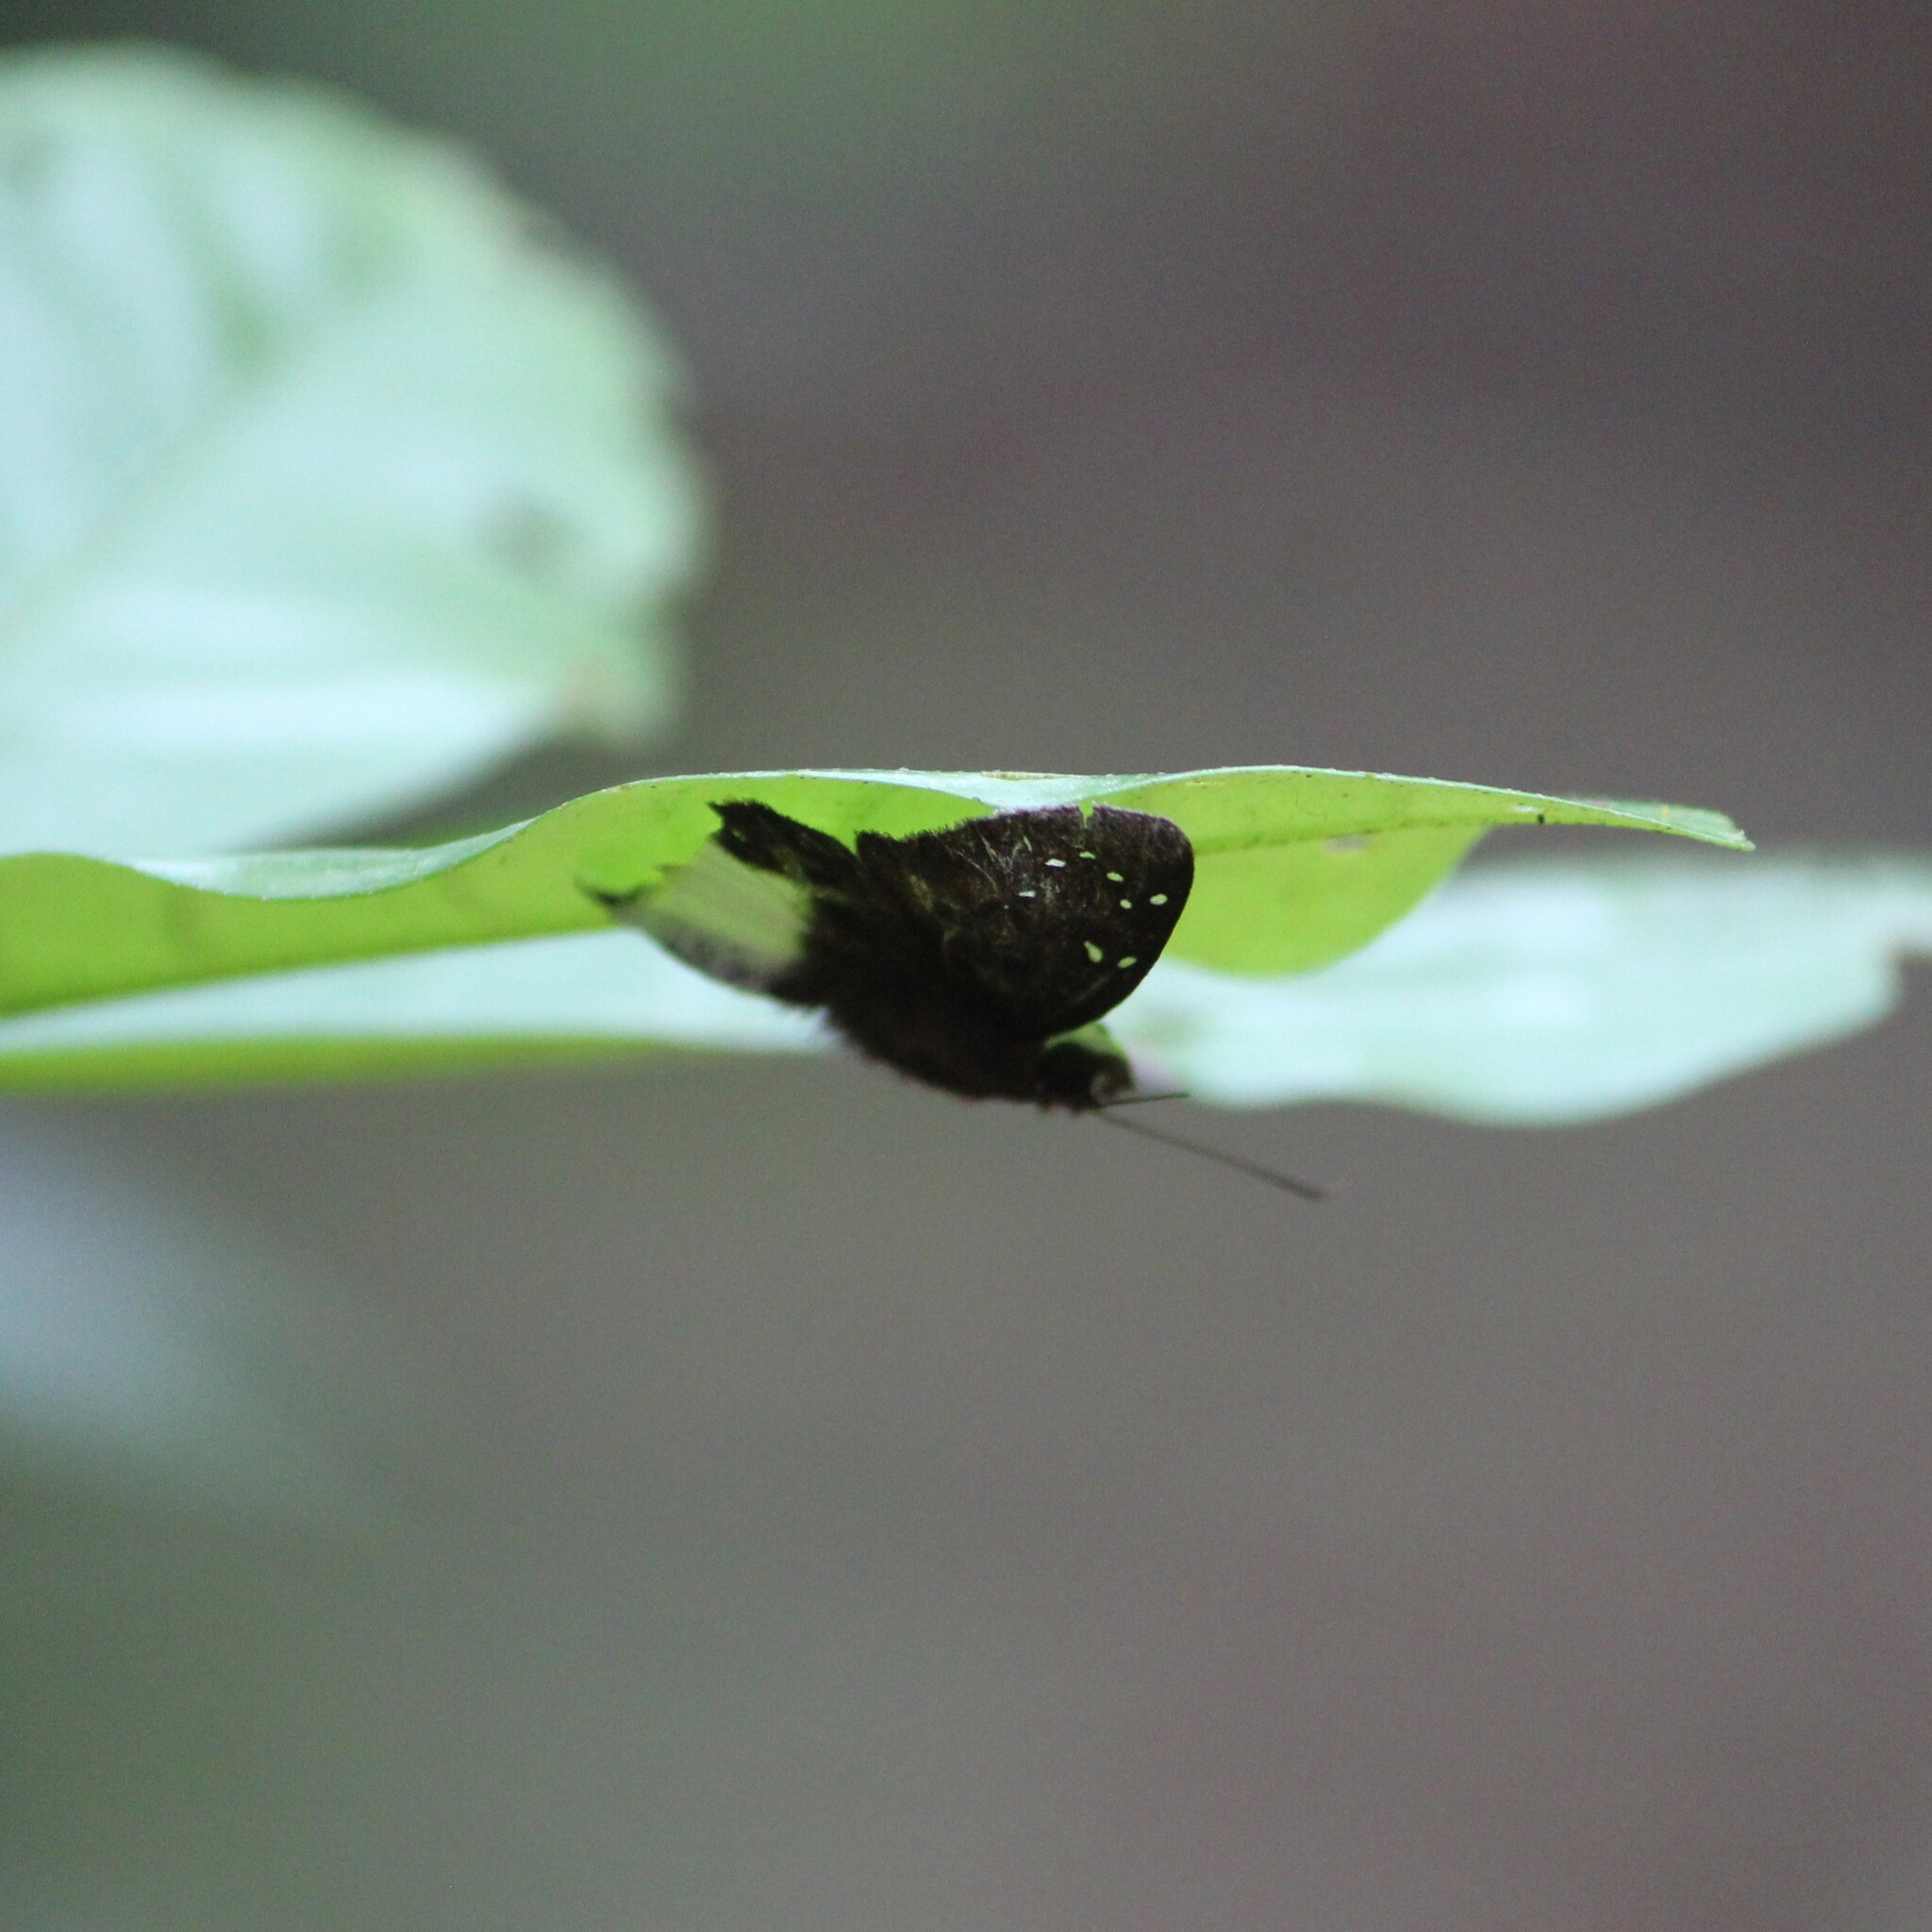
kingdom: Animalia
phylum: Arthropoda
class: Insecta
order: Lepidoptera
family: Hesperiidae
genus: Tagiades
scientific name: Tagiades litigiosa
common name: Water snow flat
